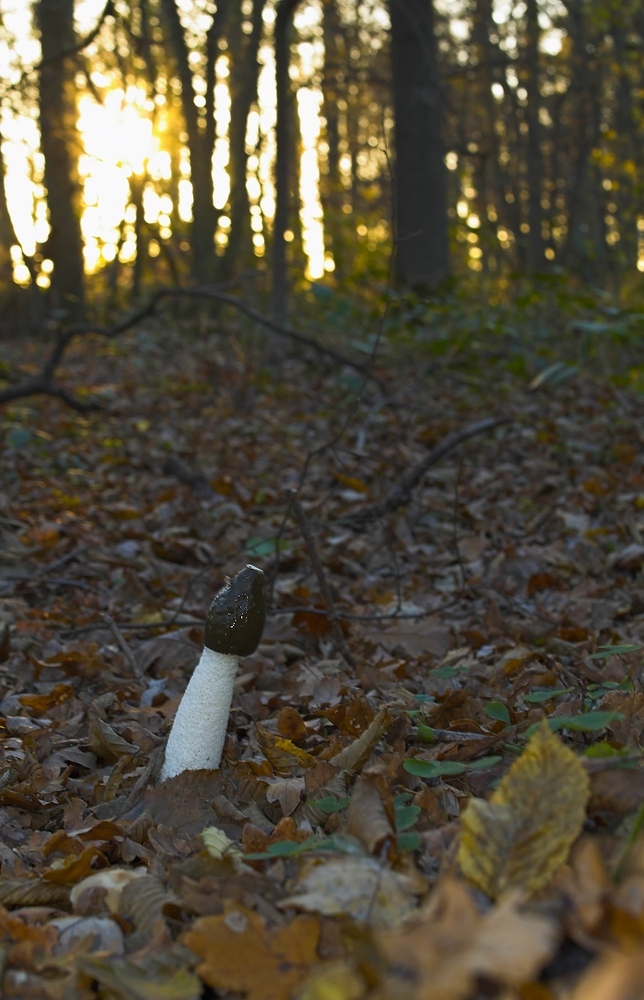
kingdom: Fungi
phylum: Basidiomycota
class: Agaricomycetes
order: Phallales
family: Phallaceae
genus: Phallus
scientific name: Phallus impudicus
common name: Common stinkhorn
